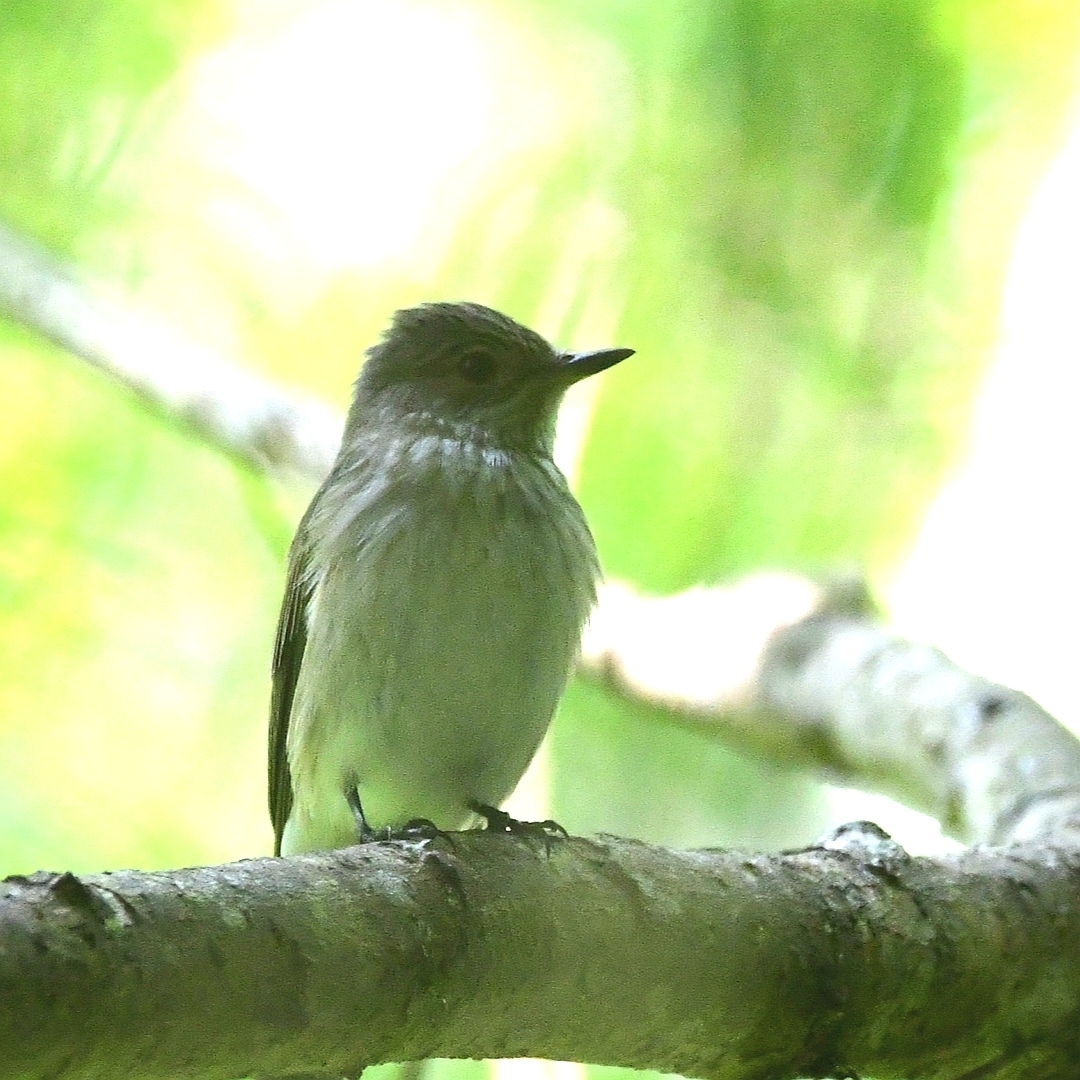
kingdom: Animalia
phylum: Chordata
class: Aves
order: Passeriformes
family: Muscicapidae
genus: Muscicapa
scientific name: Muscicapa striata
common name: Spotted flycatcher
